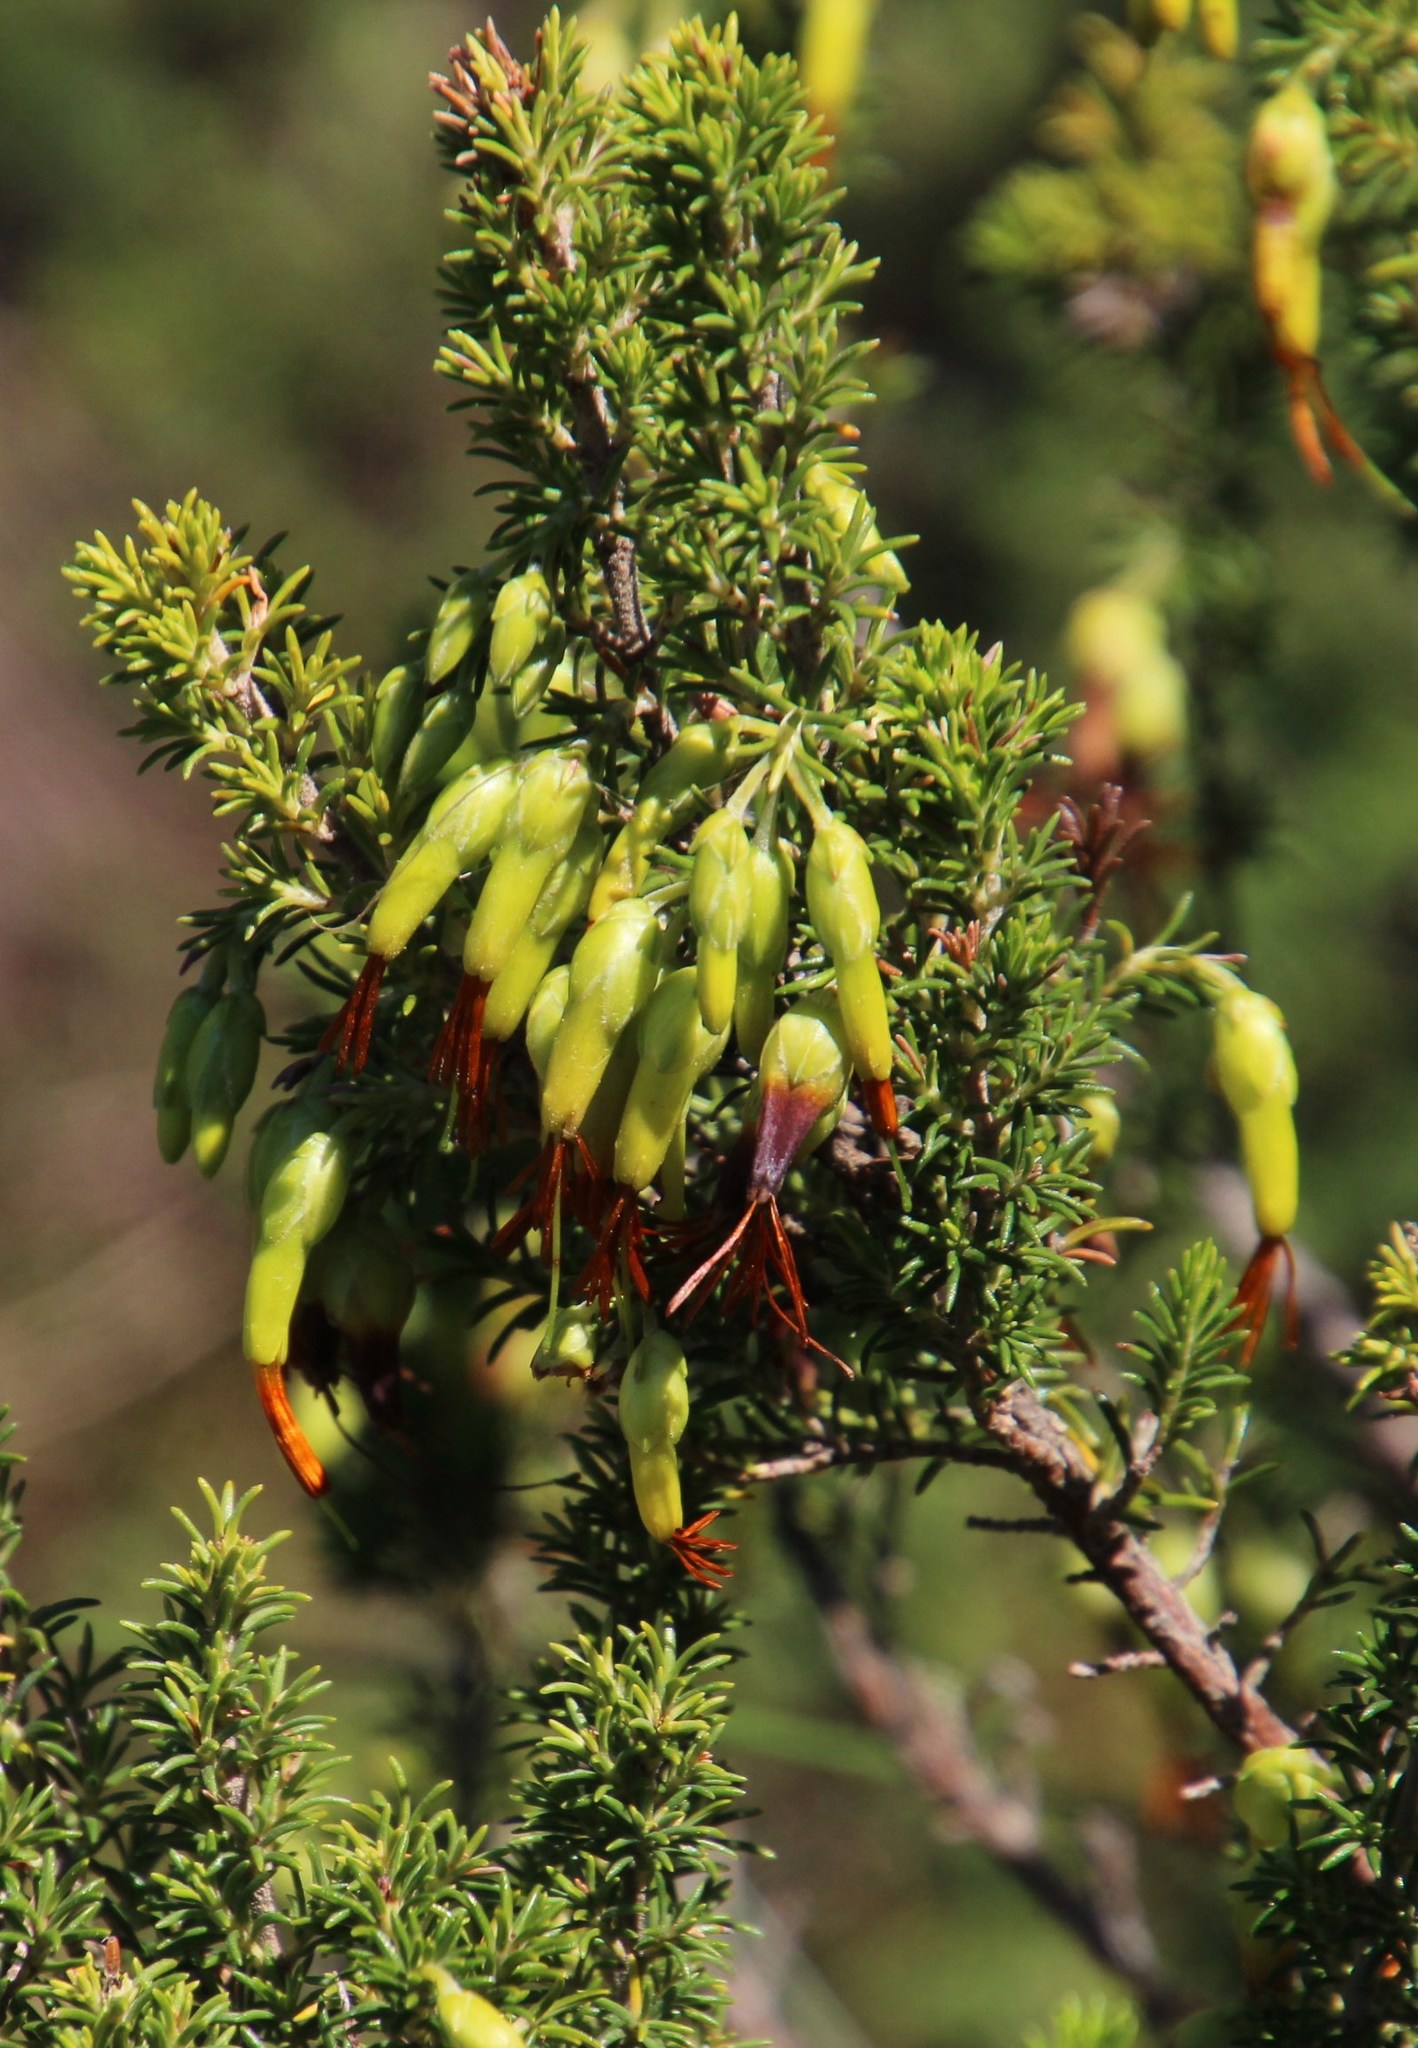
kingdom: Plantae
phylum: Tracheophyta
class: Magnoliopsida
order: Ericales
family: Ericaceae
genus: Erica
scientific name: Erica coccinea
